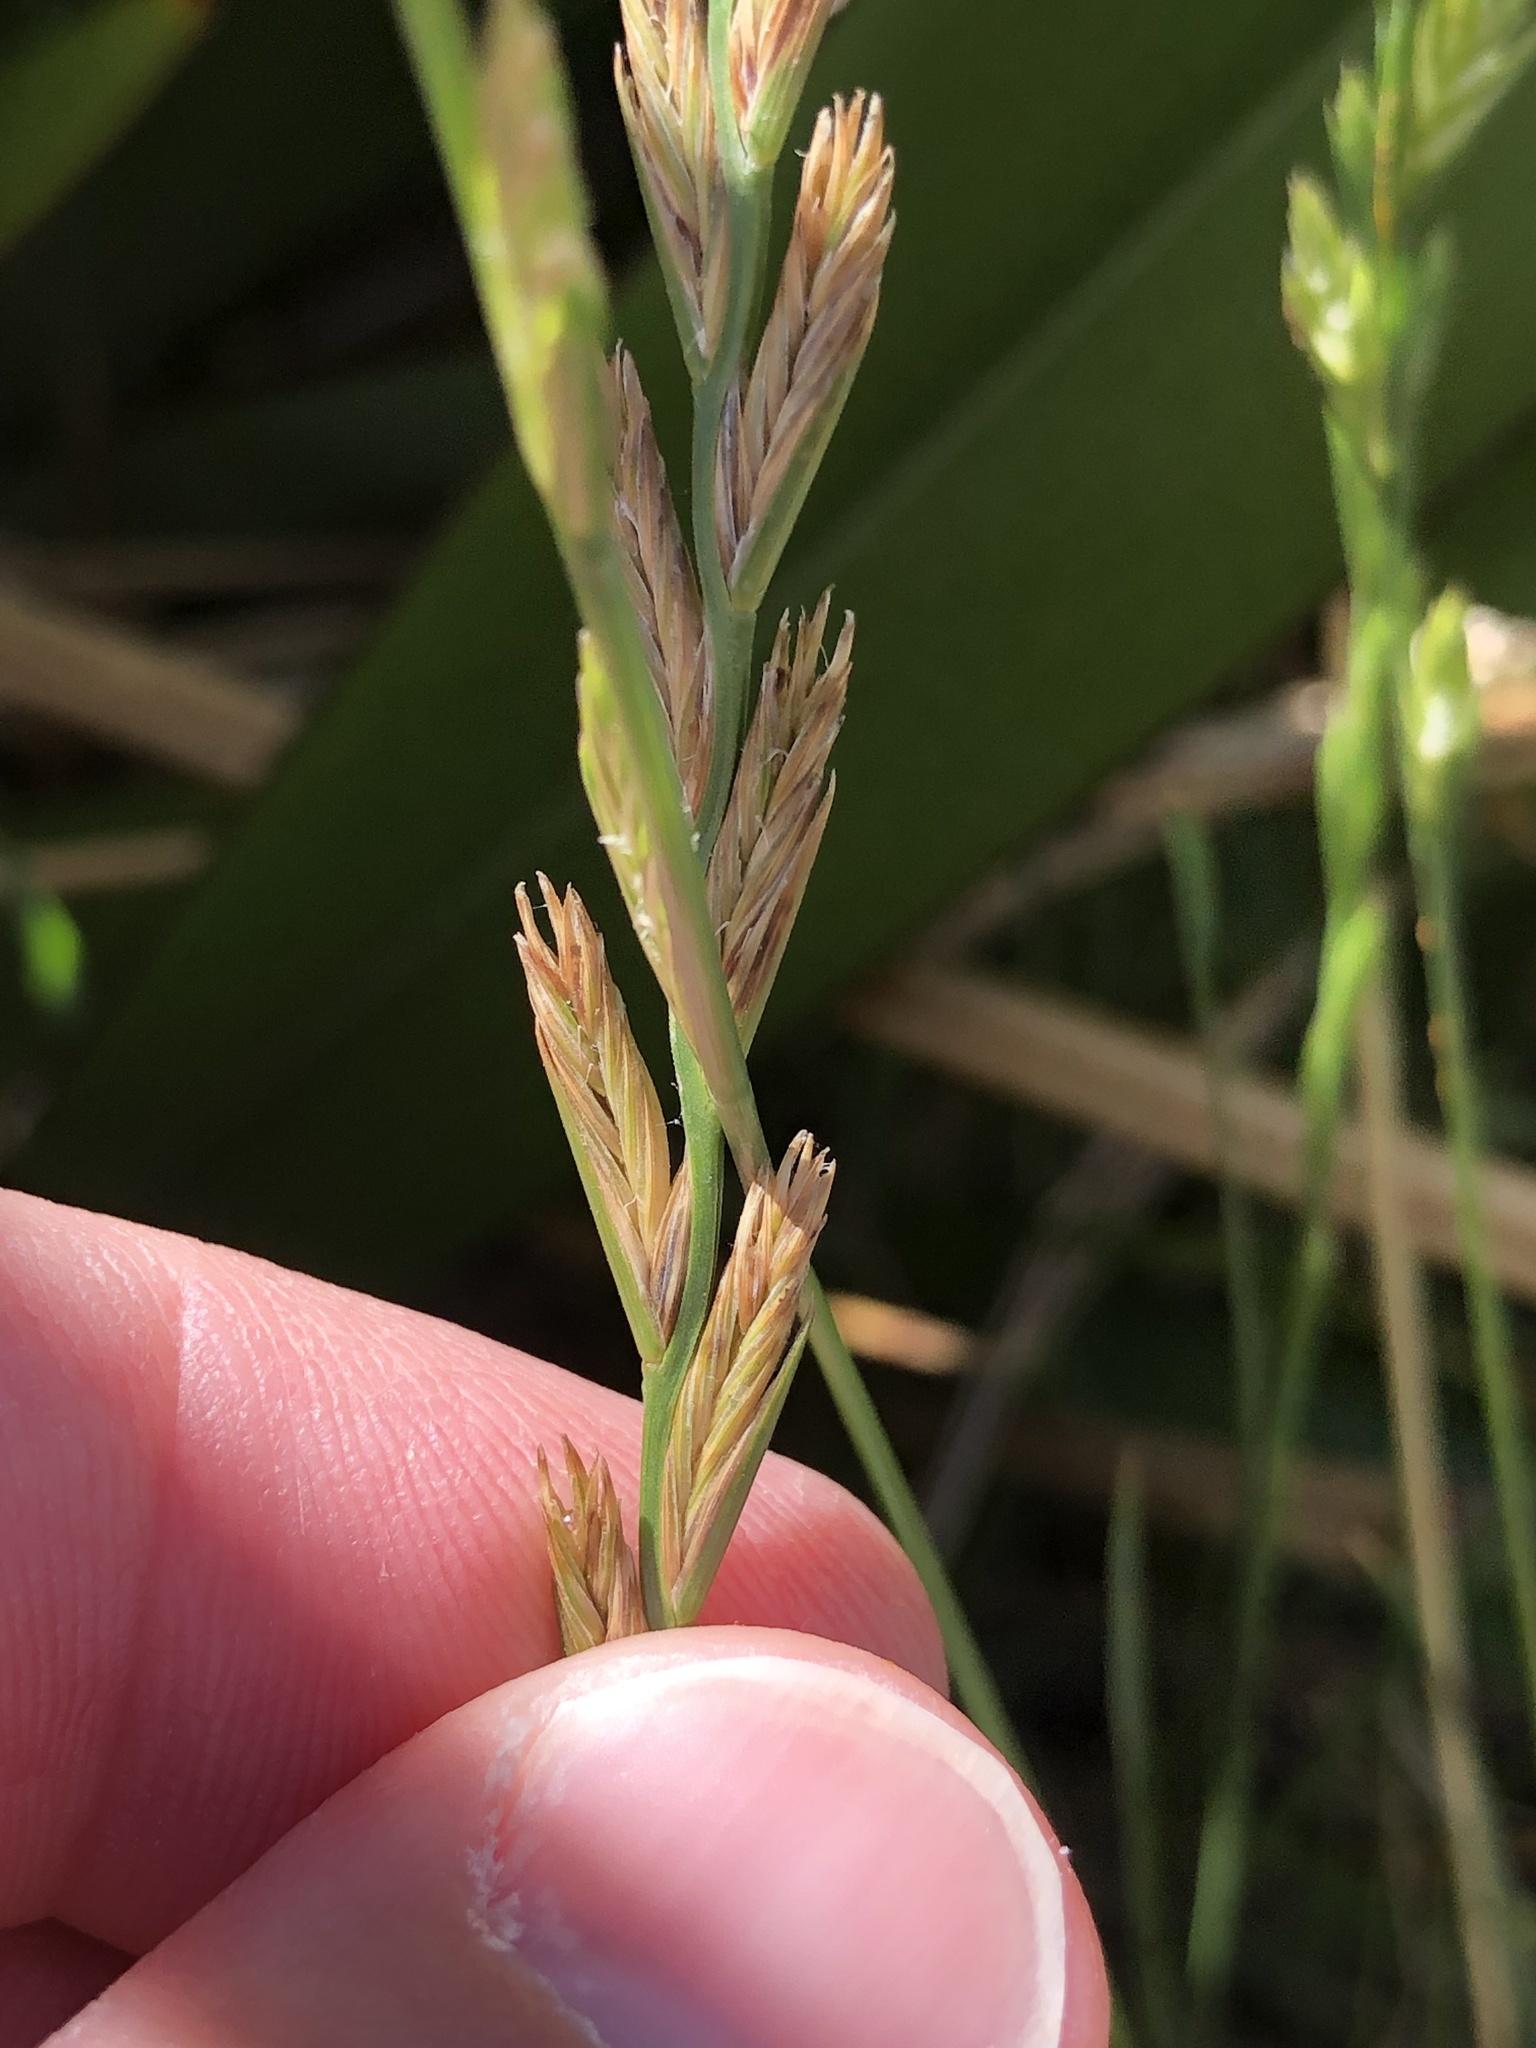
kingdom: Plantae
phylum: Tracheophyta
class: Liliopsida
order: Poales
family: Poaceae
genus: Lolium
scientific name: Lolium perenne
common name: Perennial ryegrass
